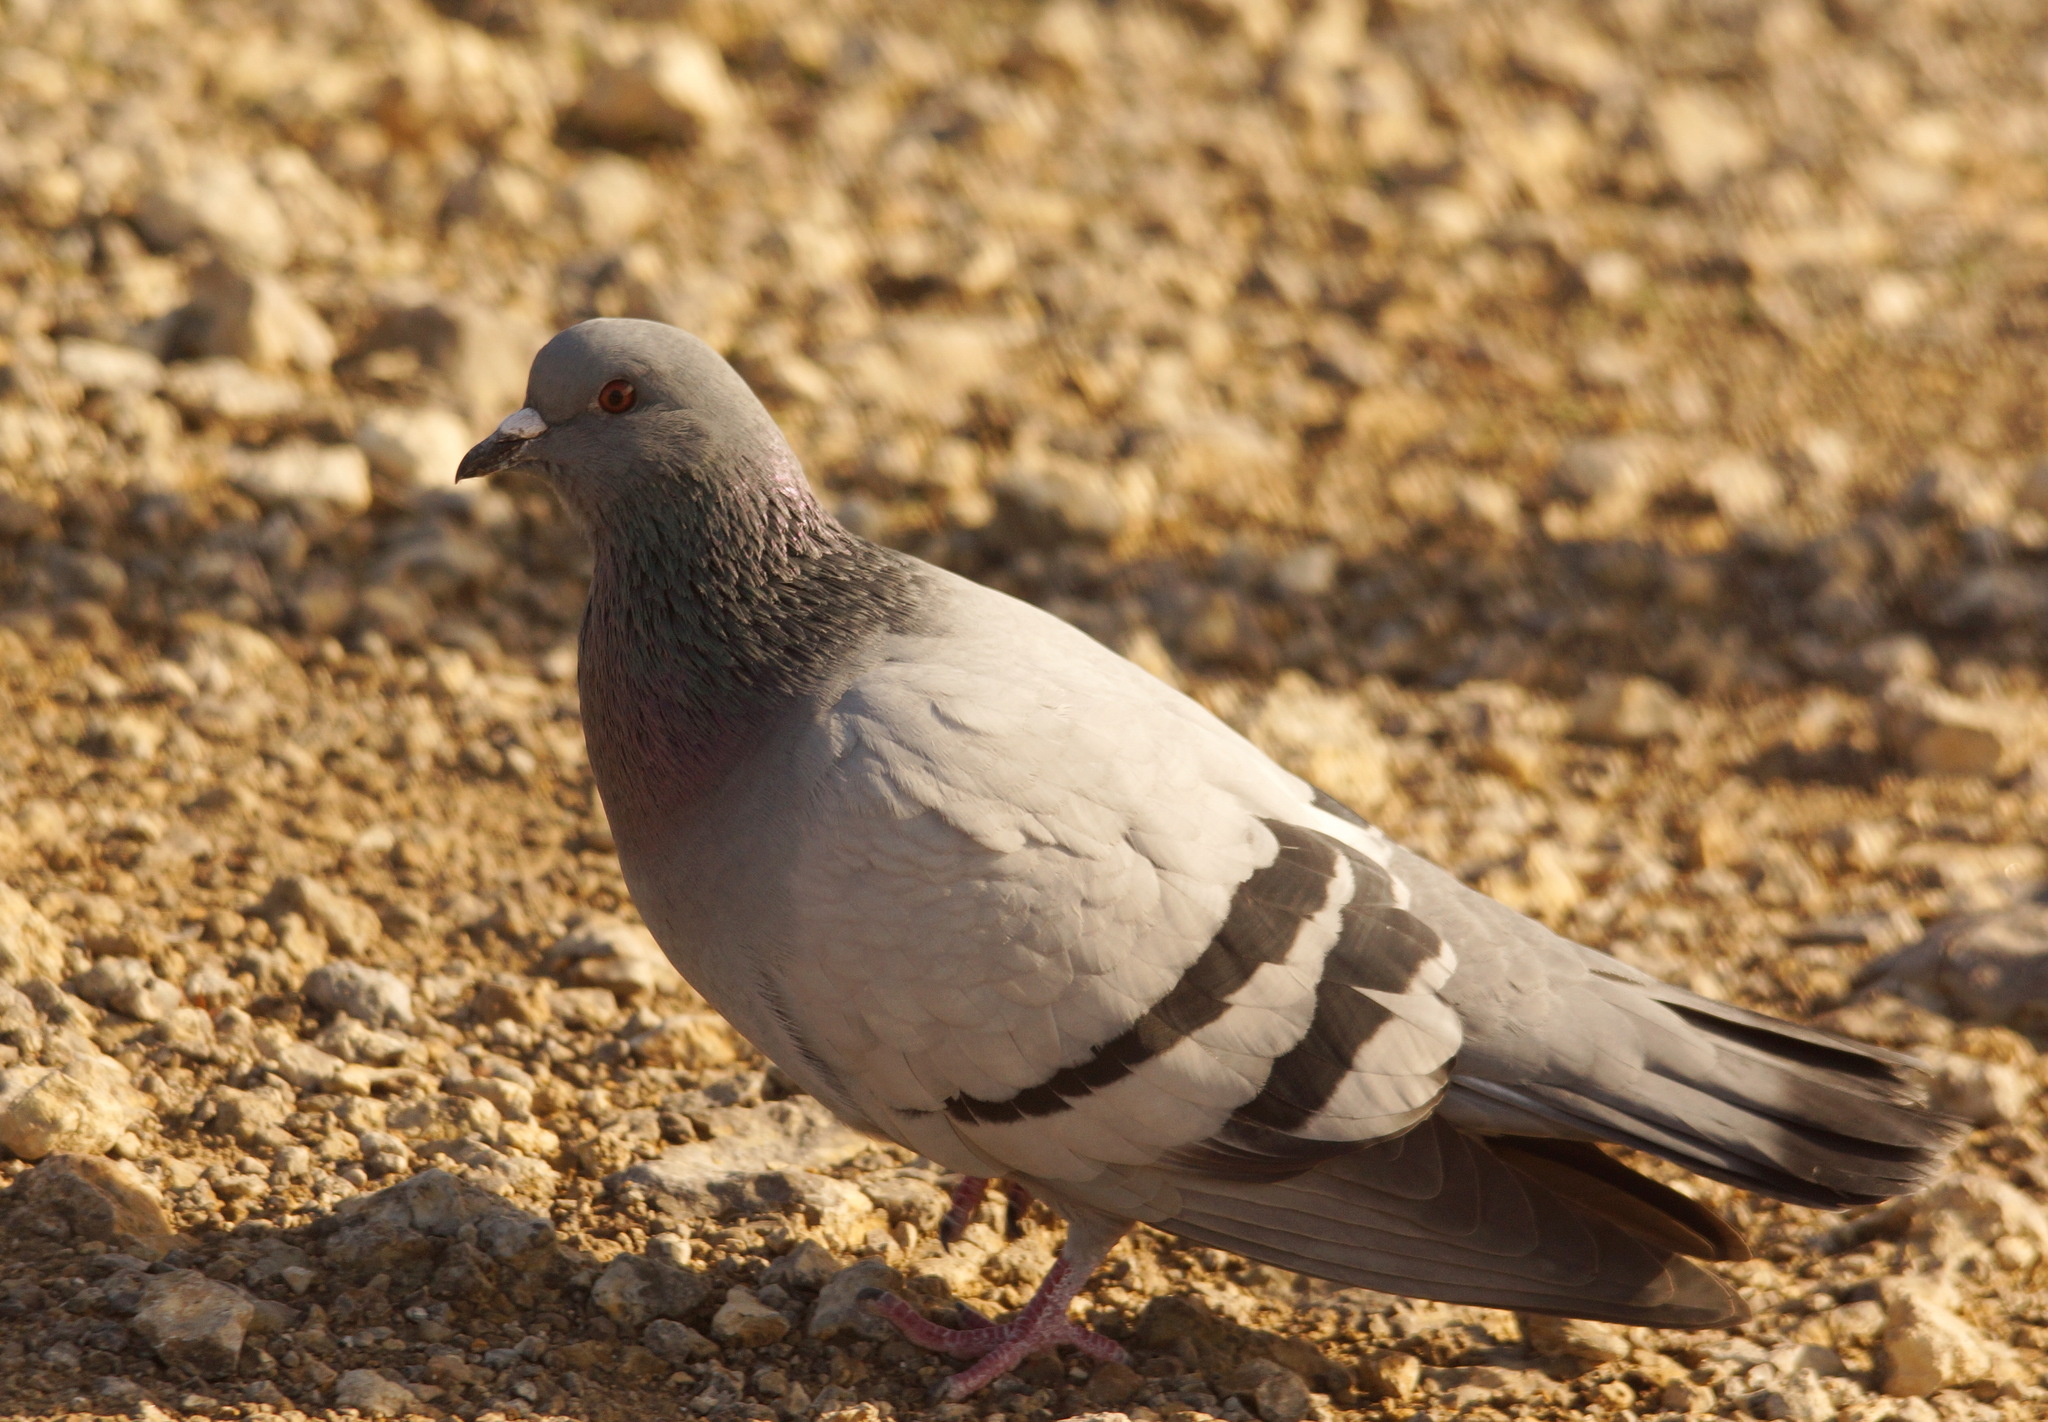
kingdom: Animalia
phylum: Chordata
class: Aves
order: Columbiformes
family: Columbidae
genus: Columba
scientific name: Columba livia
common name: Rock pigeon
